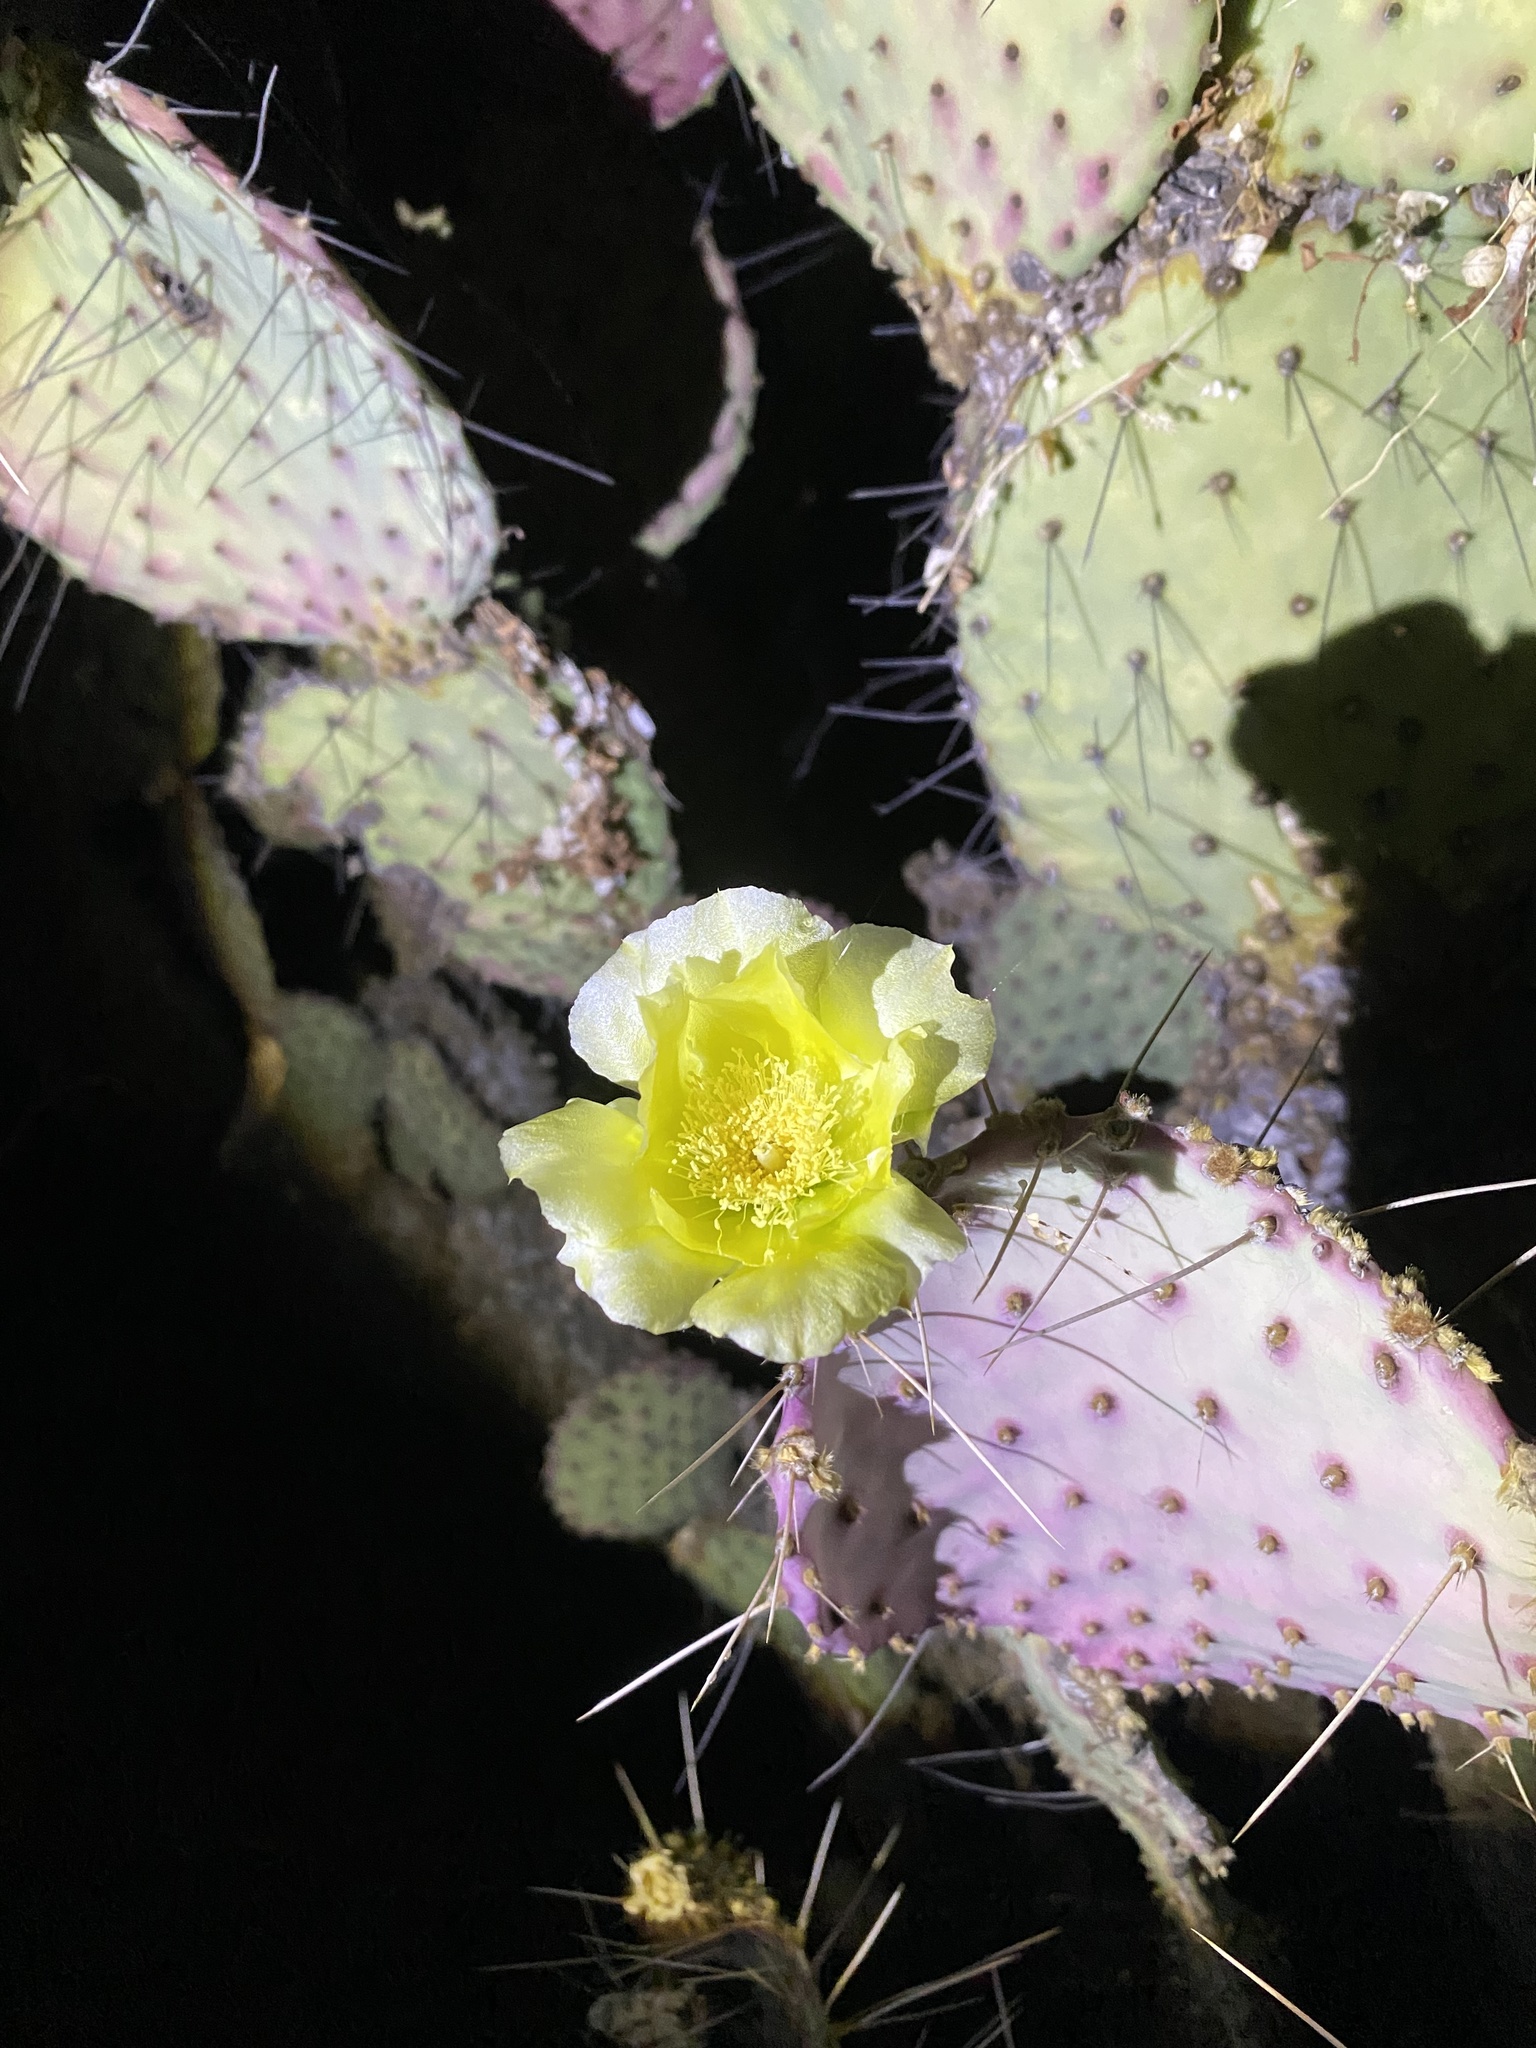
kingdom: Plantae
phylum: Tracheophyta
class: Magnoliopsida
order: Caryophyllales
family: Cactaceae
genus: Opuntia
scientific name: Opuntia gosseliniana
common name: Violet prickly-pear
